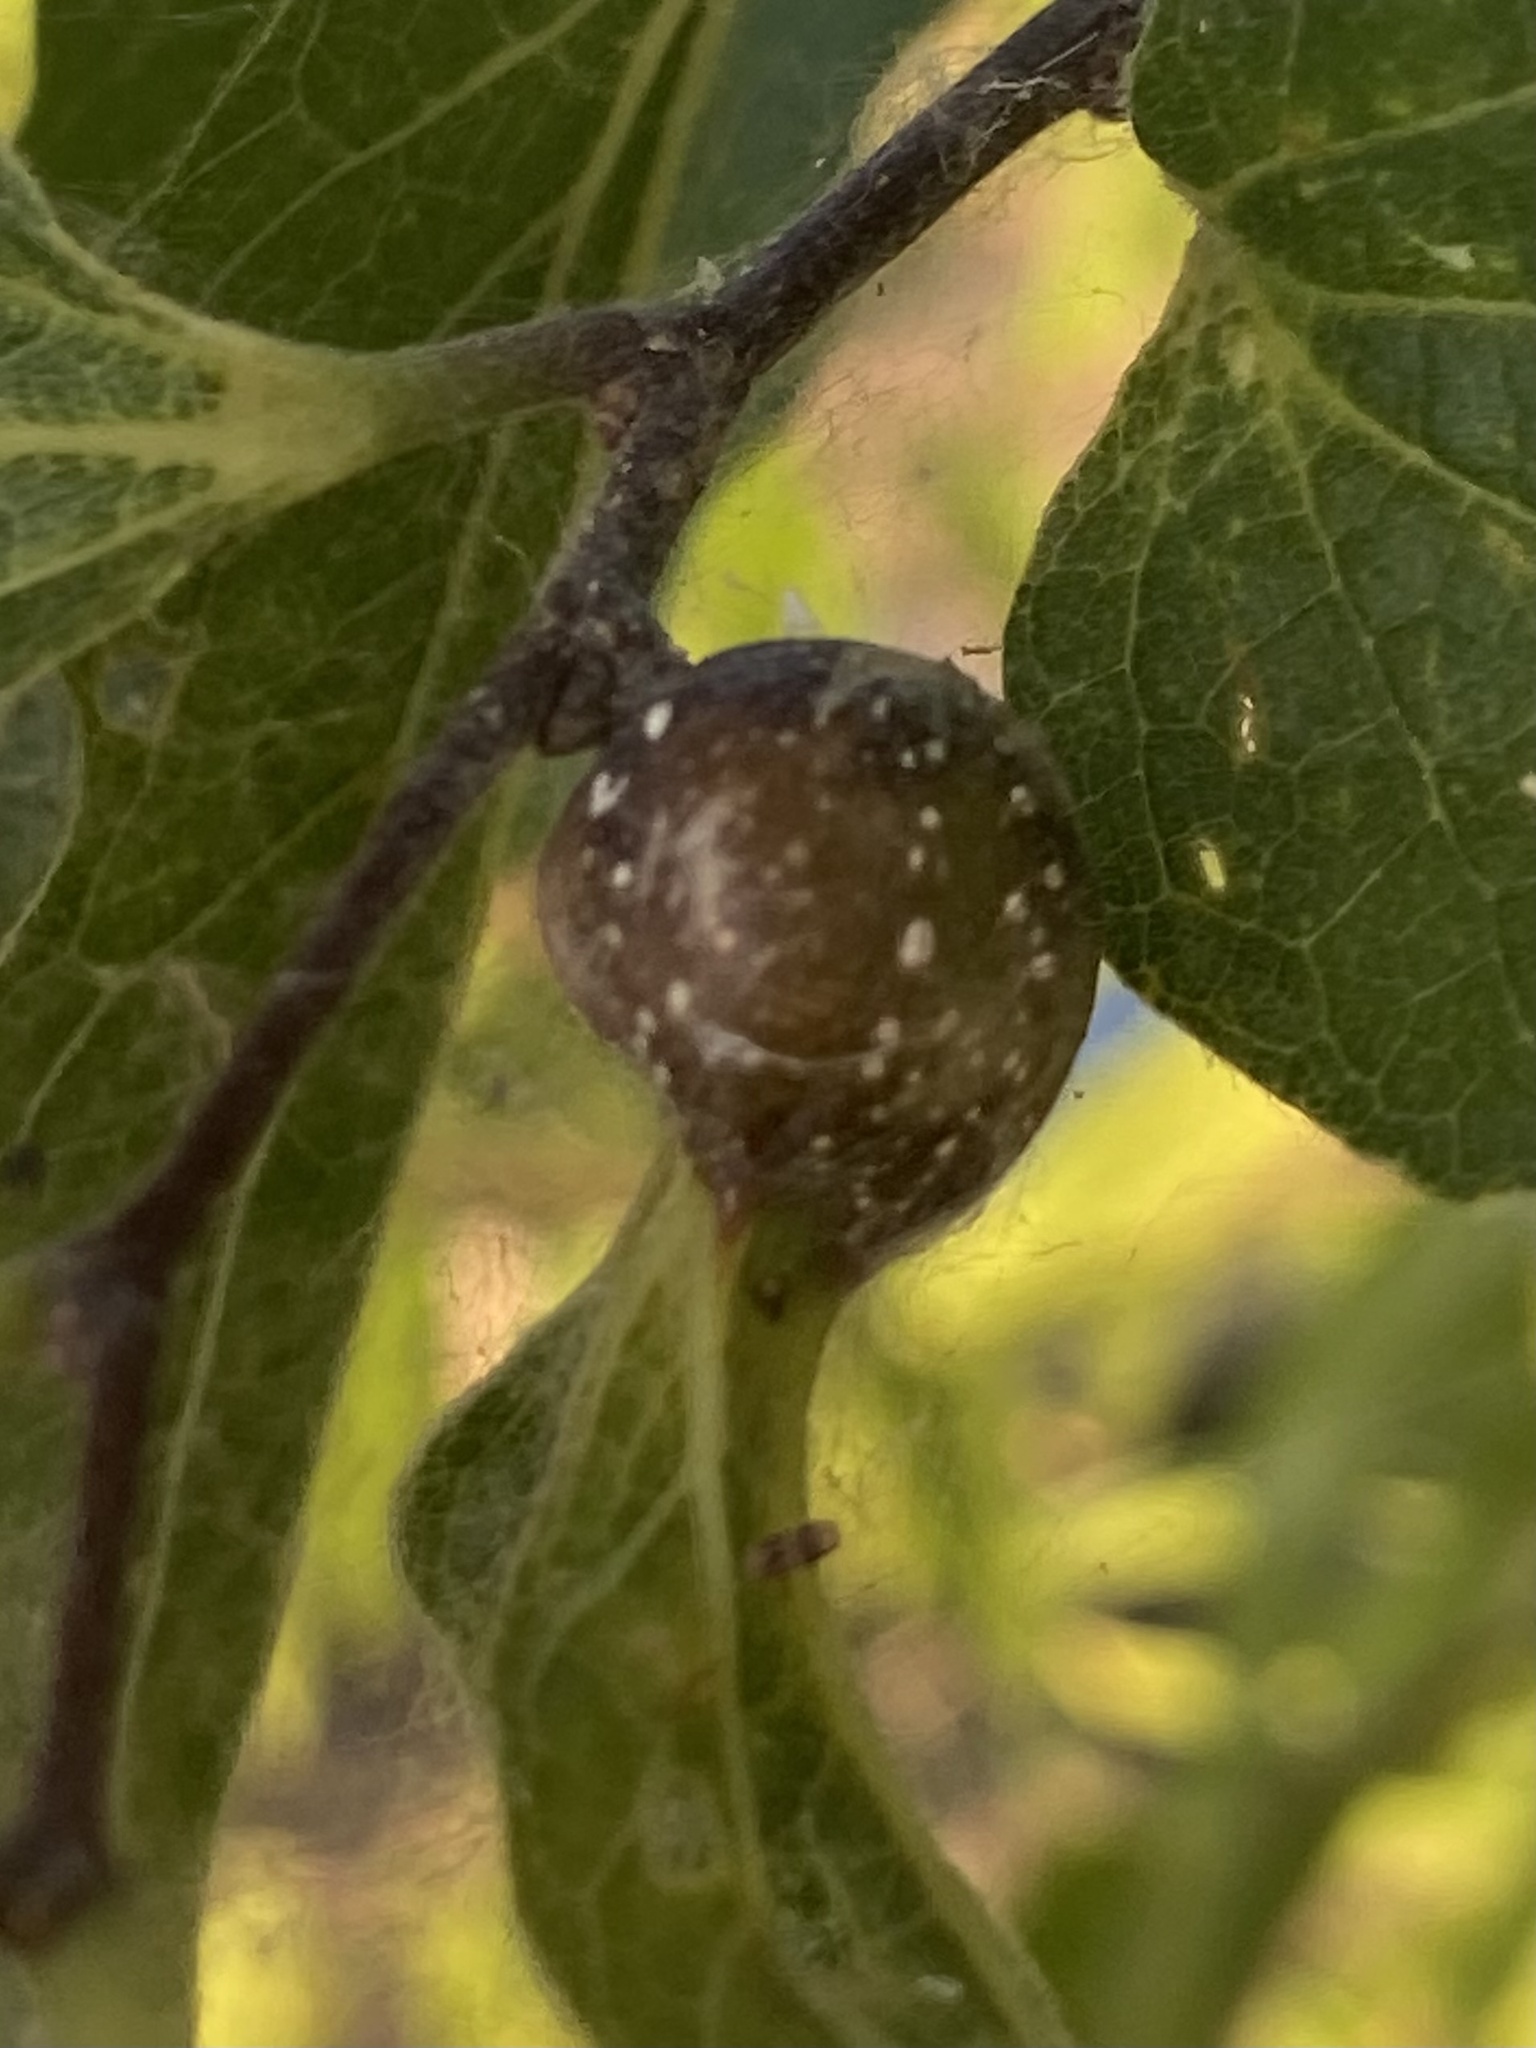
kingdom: Animalia
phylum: Arthropoda
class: Insecta
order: Hemiptera
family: Aphalaridae
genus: Pachypsylla
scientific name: Pachypsylla venusta
